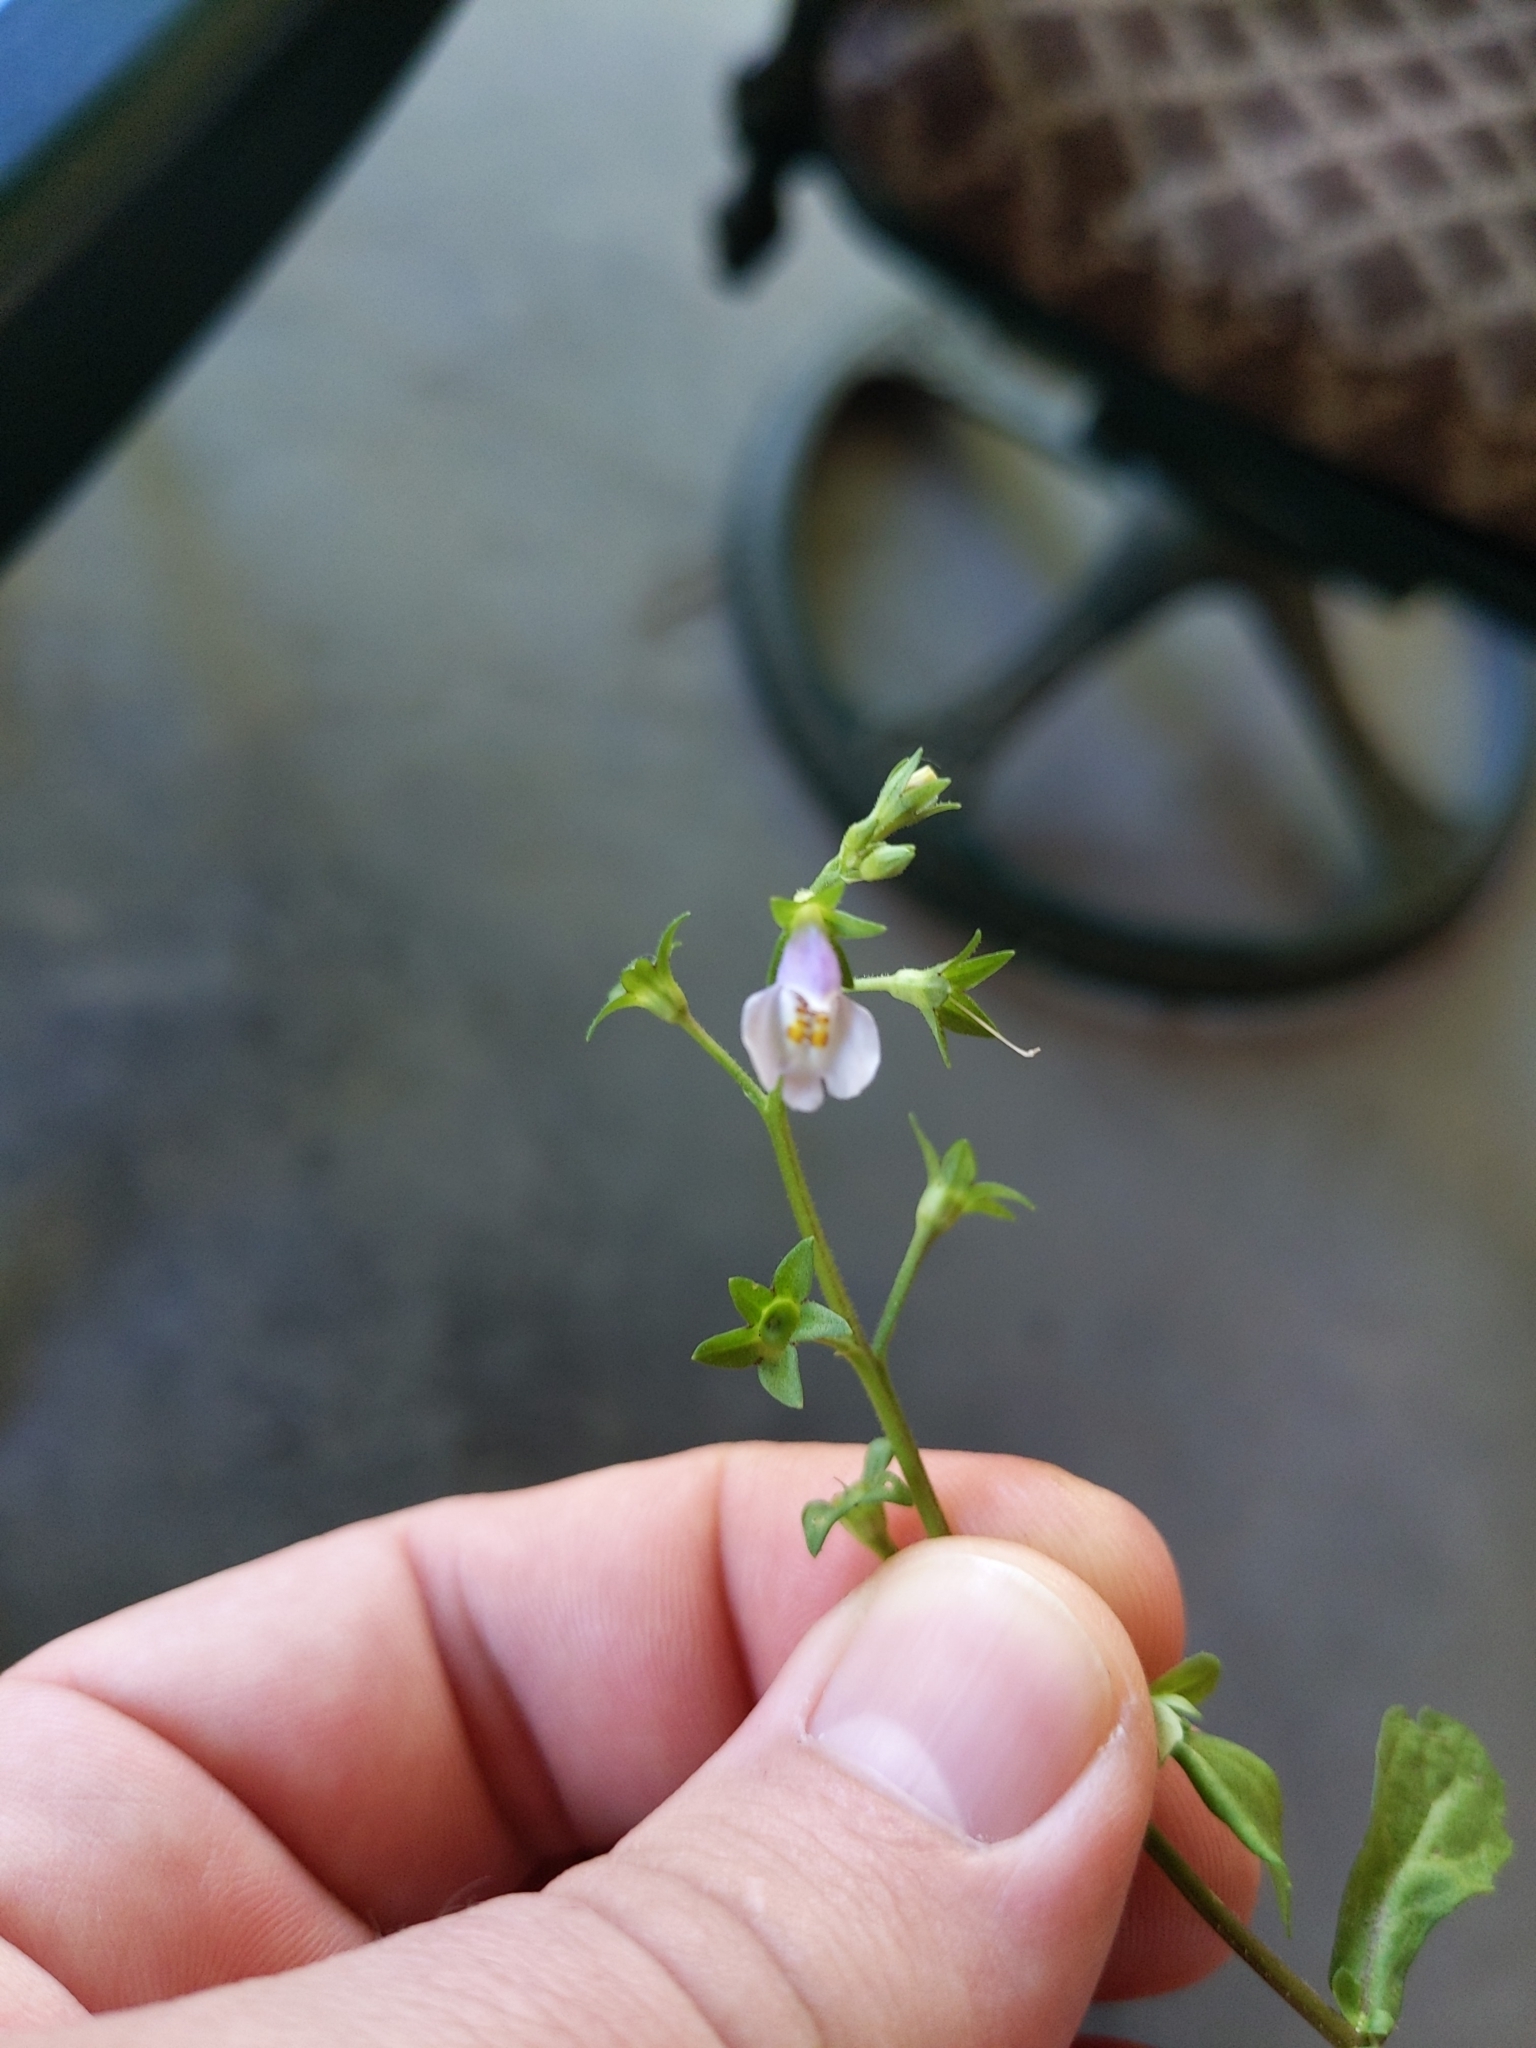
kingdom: Plantae
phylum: Tracheophyta
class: Magnoliopsida
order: Lamiales
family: Mazaceae
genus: Mazus
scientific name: Mazus pumilus
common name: Japanese mazus
